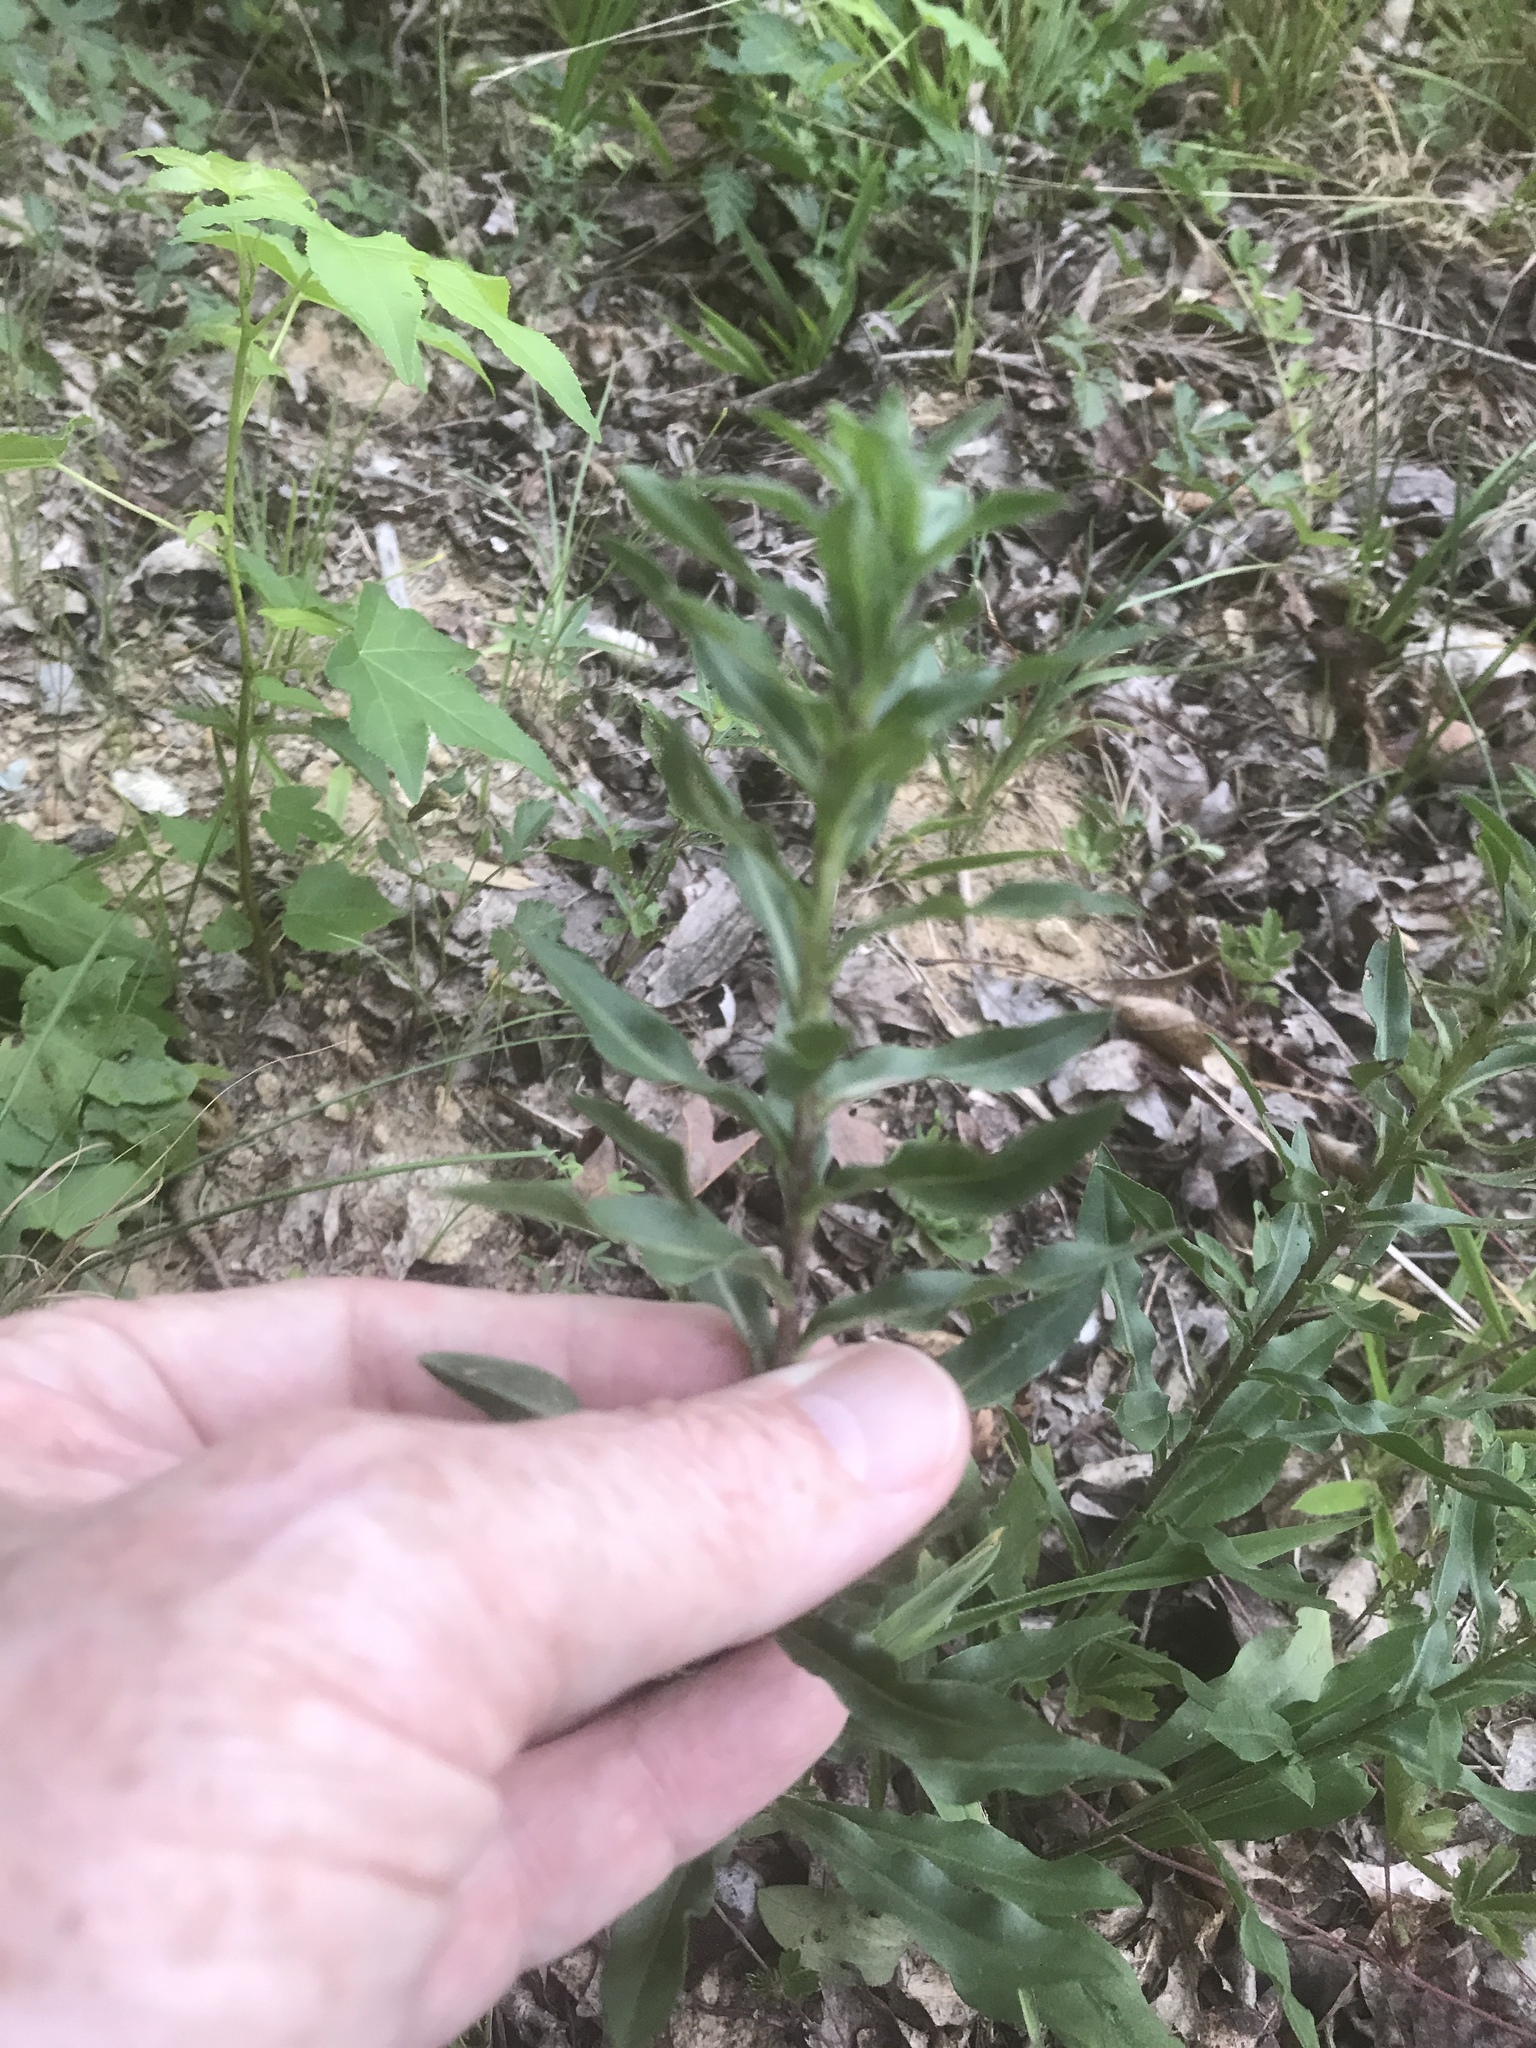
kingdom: Plantae
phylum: Tracheophyta
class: Magnoliopsida
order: Asterales
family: Asteraceae
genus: Chrysopsis
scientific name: Chrysopsis mariana
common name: Maryland golden-aster
